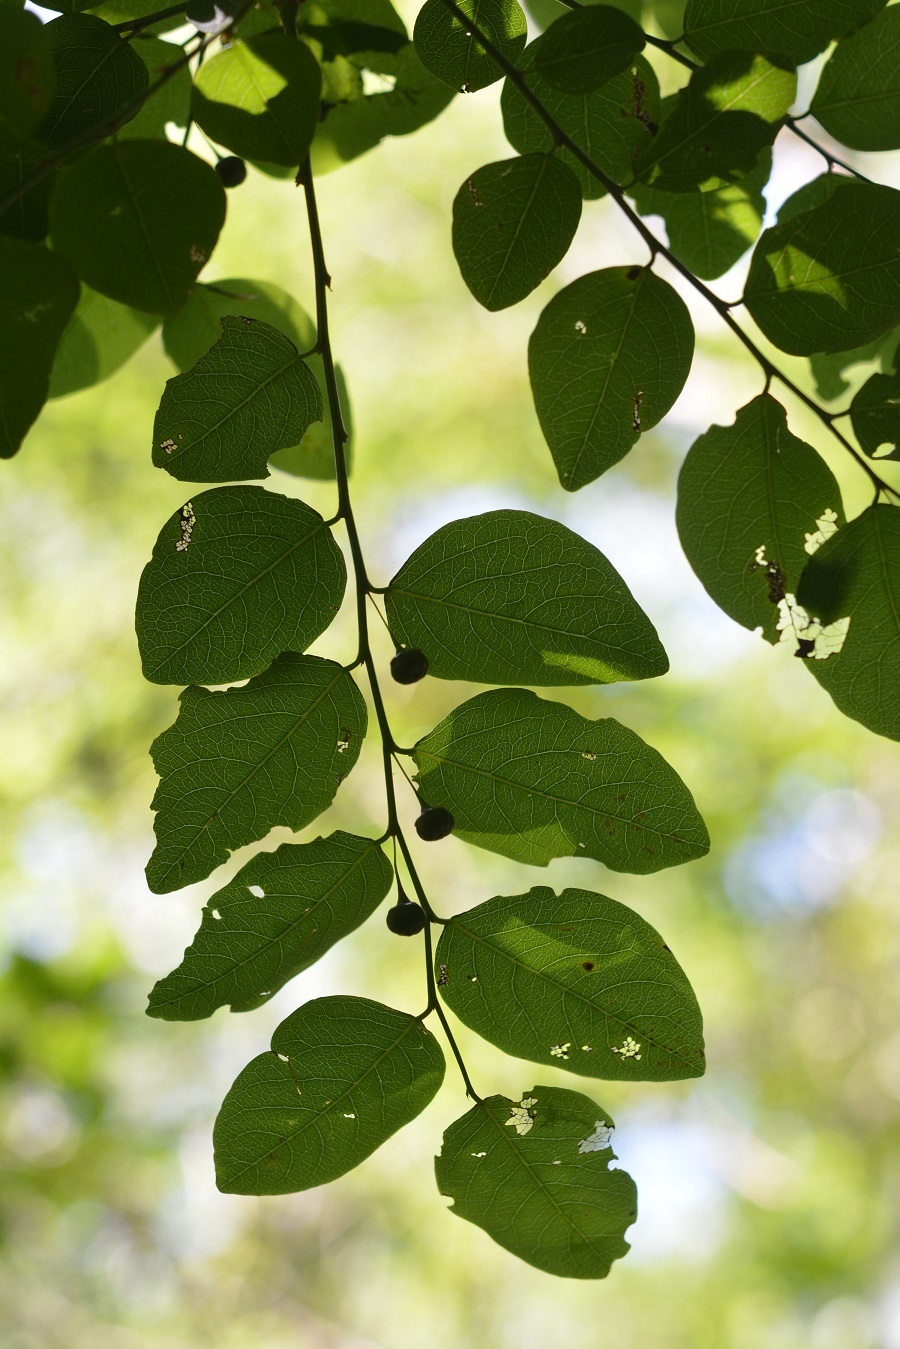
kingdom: Plantae
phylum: Tracheophyta
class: Magnoliopsida
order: Malpighiales
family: Phyllanthaceae
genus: Phyllanthus
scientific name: Phyllanthus mocinoanus
